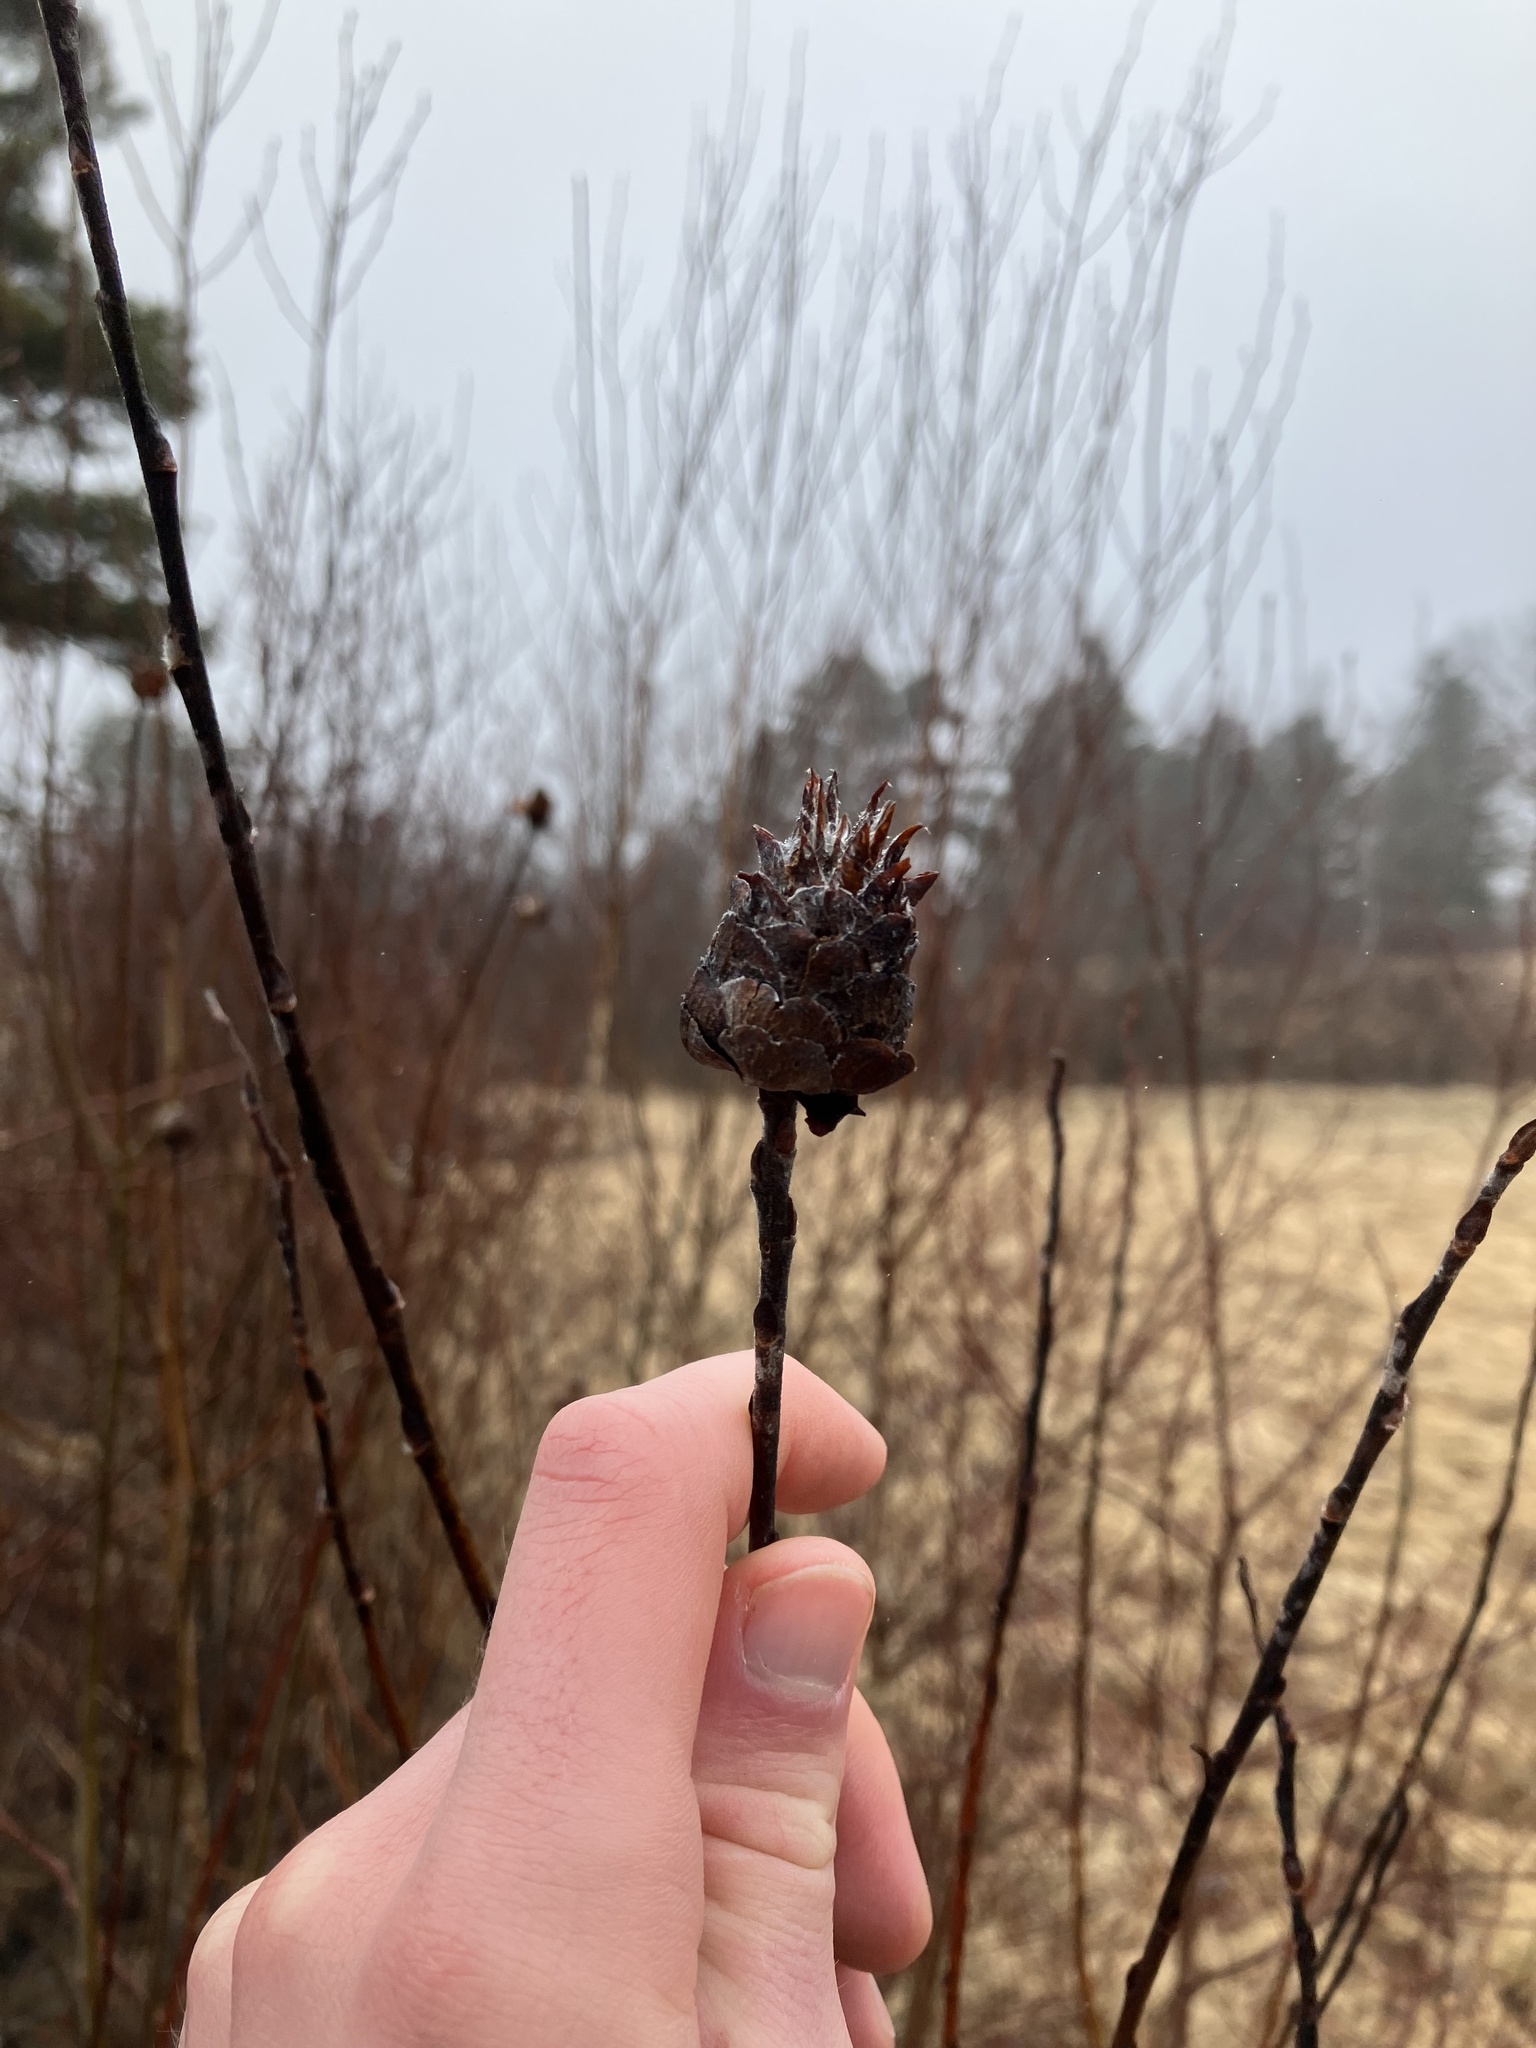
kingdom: Animalia
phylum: Arthropoda
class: Insecta
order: Diptera
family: Cecidomyiidae
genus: Rabdophaga
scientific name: Rabdophaga strobiloides
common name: Willow pinecone gall midge
